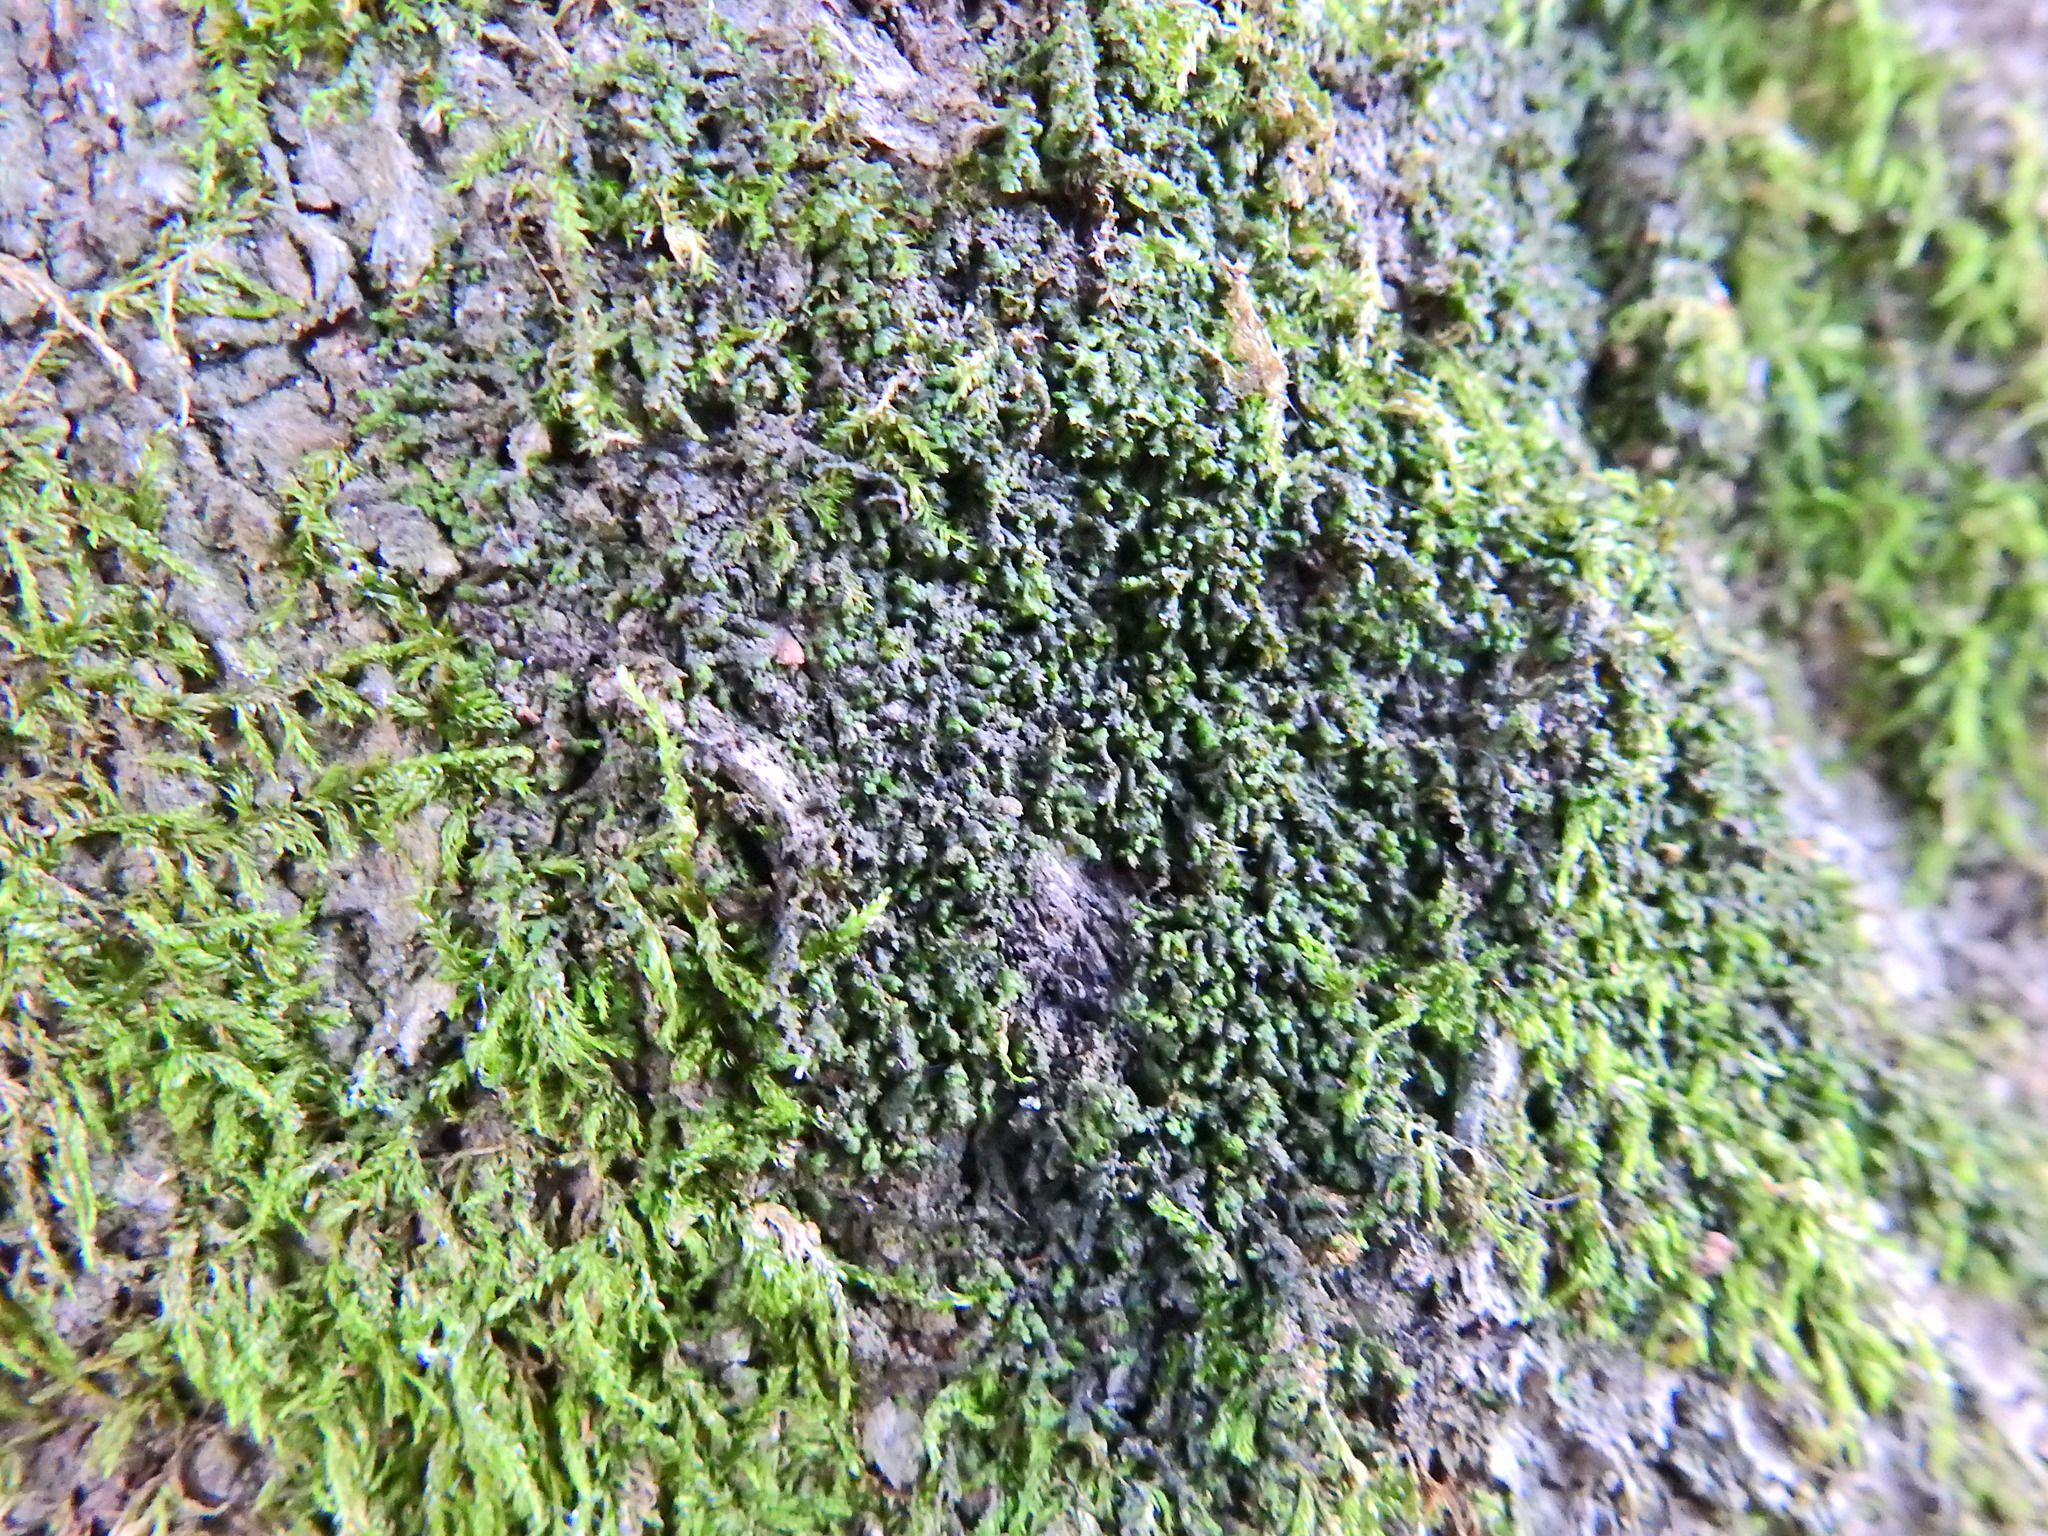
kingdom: Plantae
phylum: Marchantiophyta
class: Jungermanniopsida
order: Porellales
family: Frullaniaceae
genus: Frullania
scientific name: Frullania dilatata
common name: Dilated scalewort
